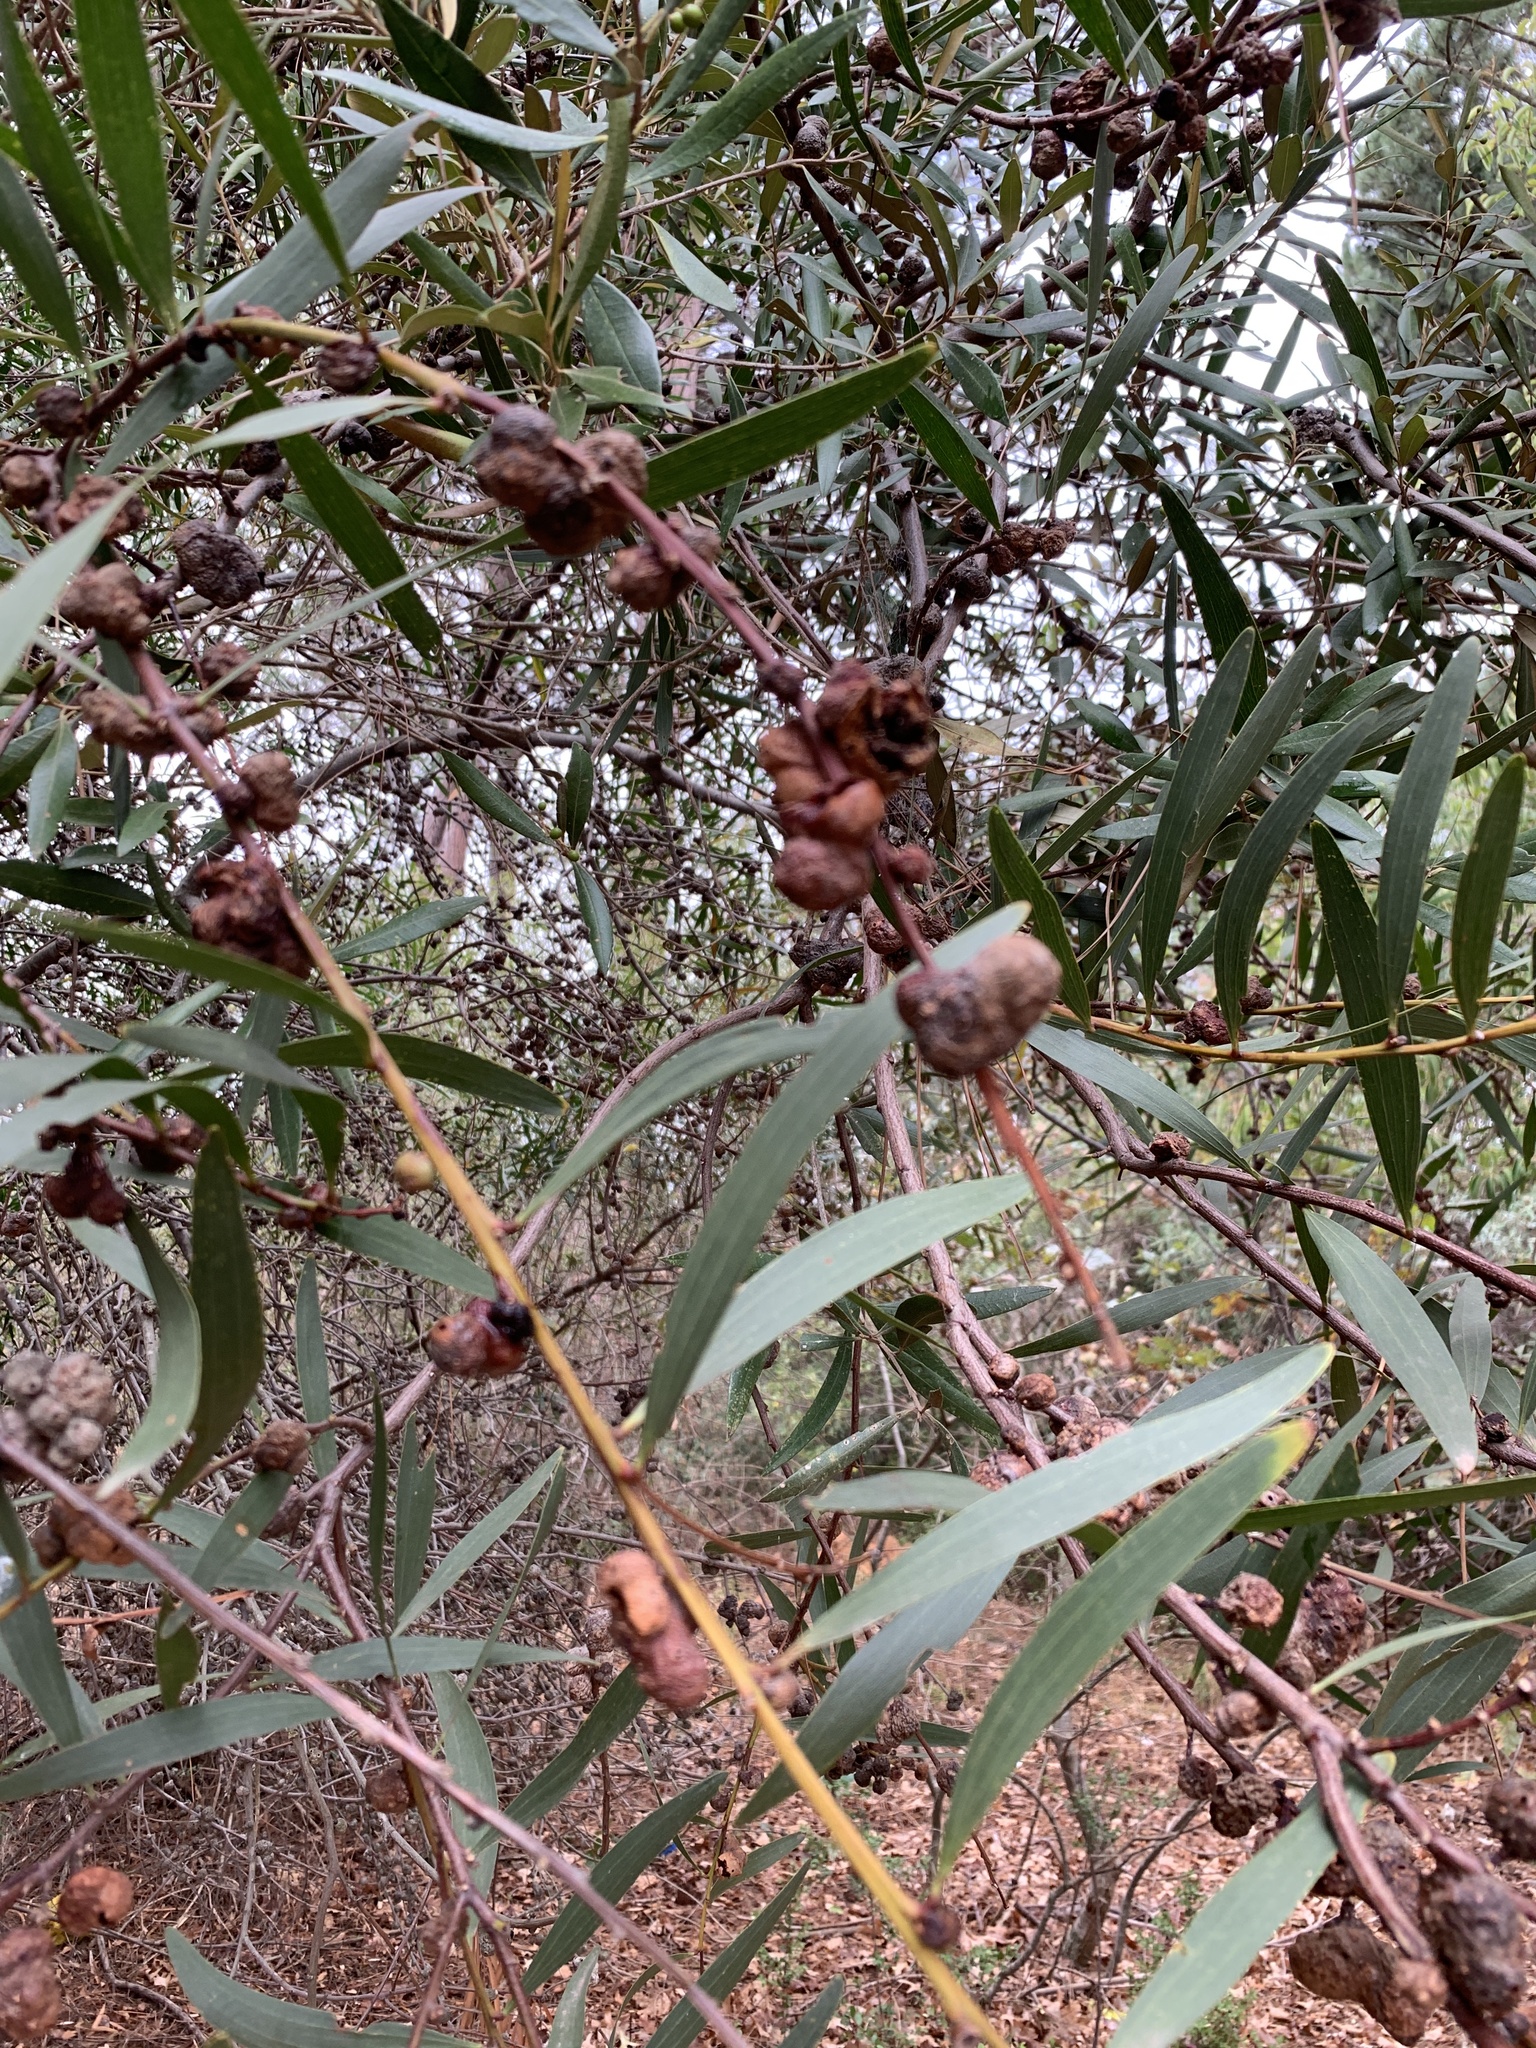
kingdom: Animalia
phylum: Arthropoda
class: Insecta
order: Hymenoptera
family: Pteromalidae
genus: Trichilogaster
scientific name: Trichilogaster acaciaelongifoliae
